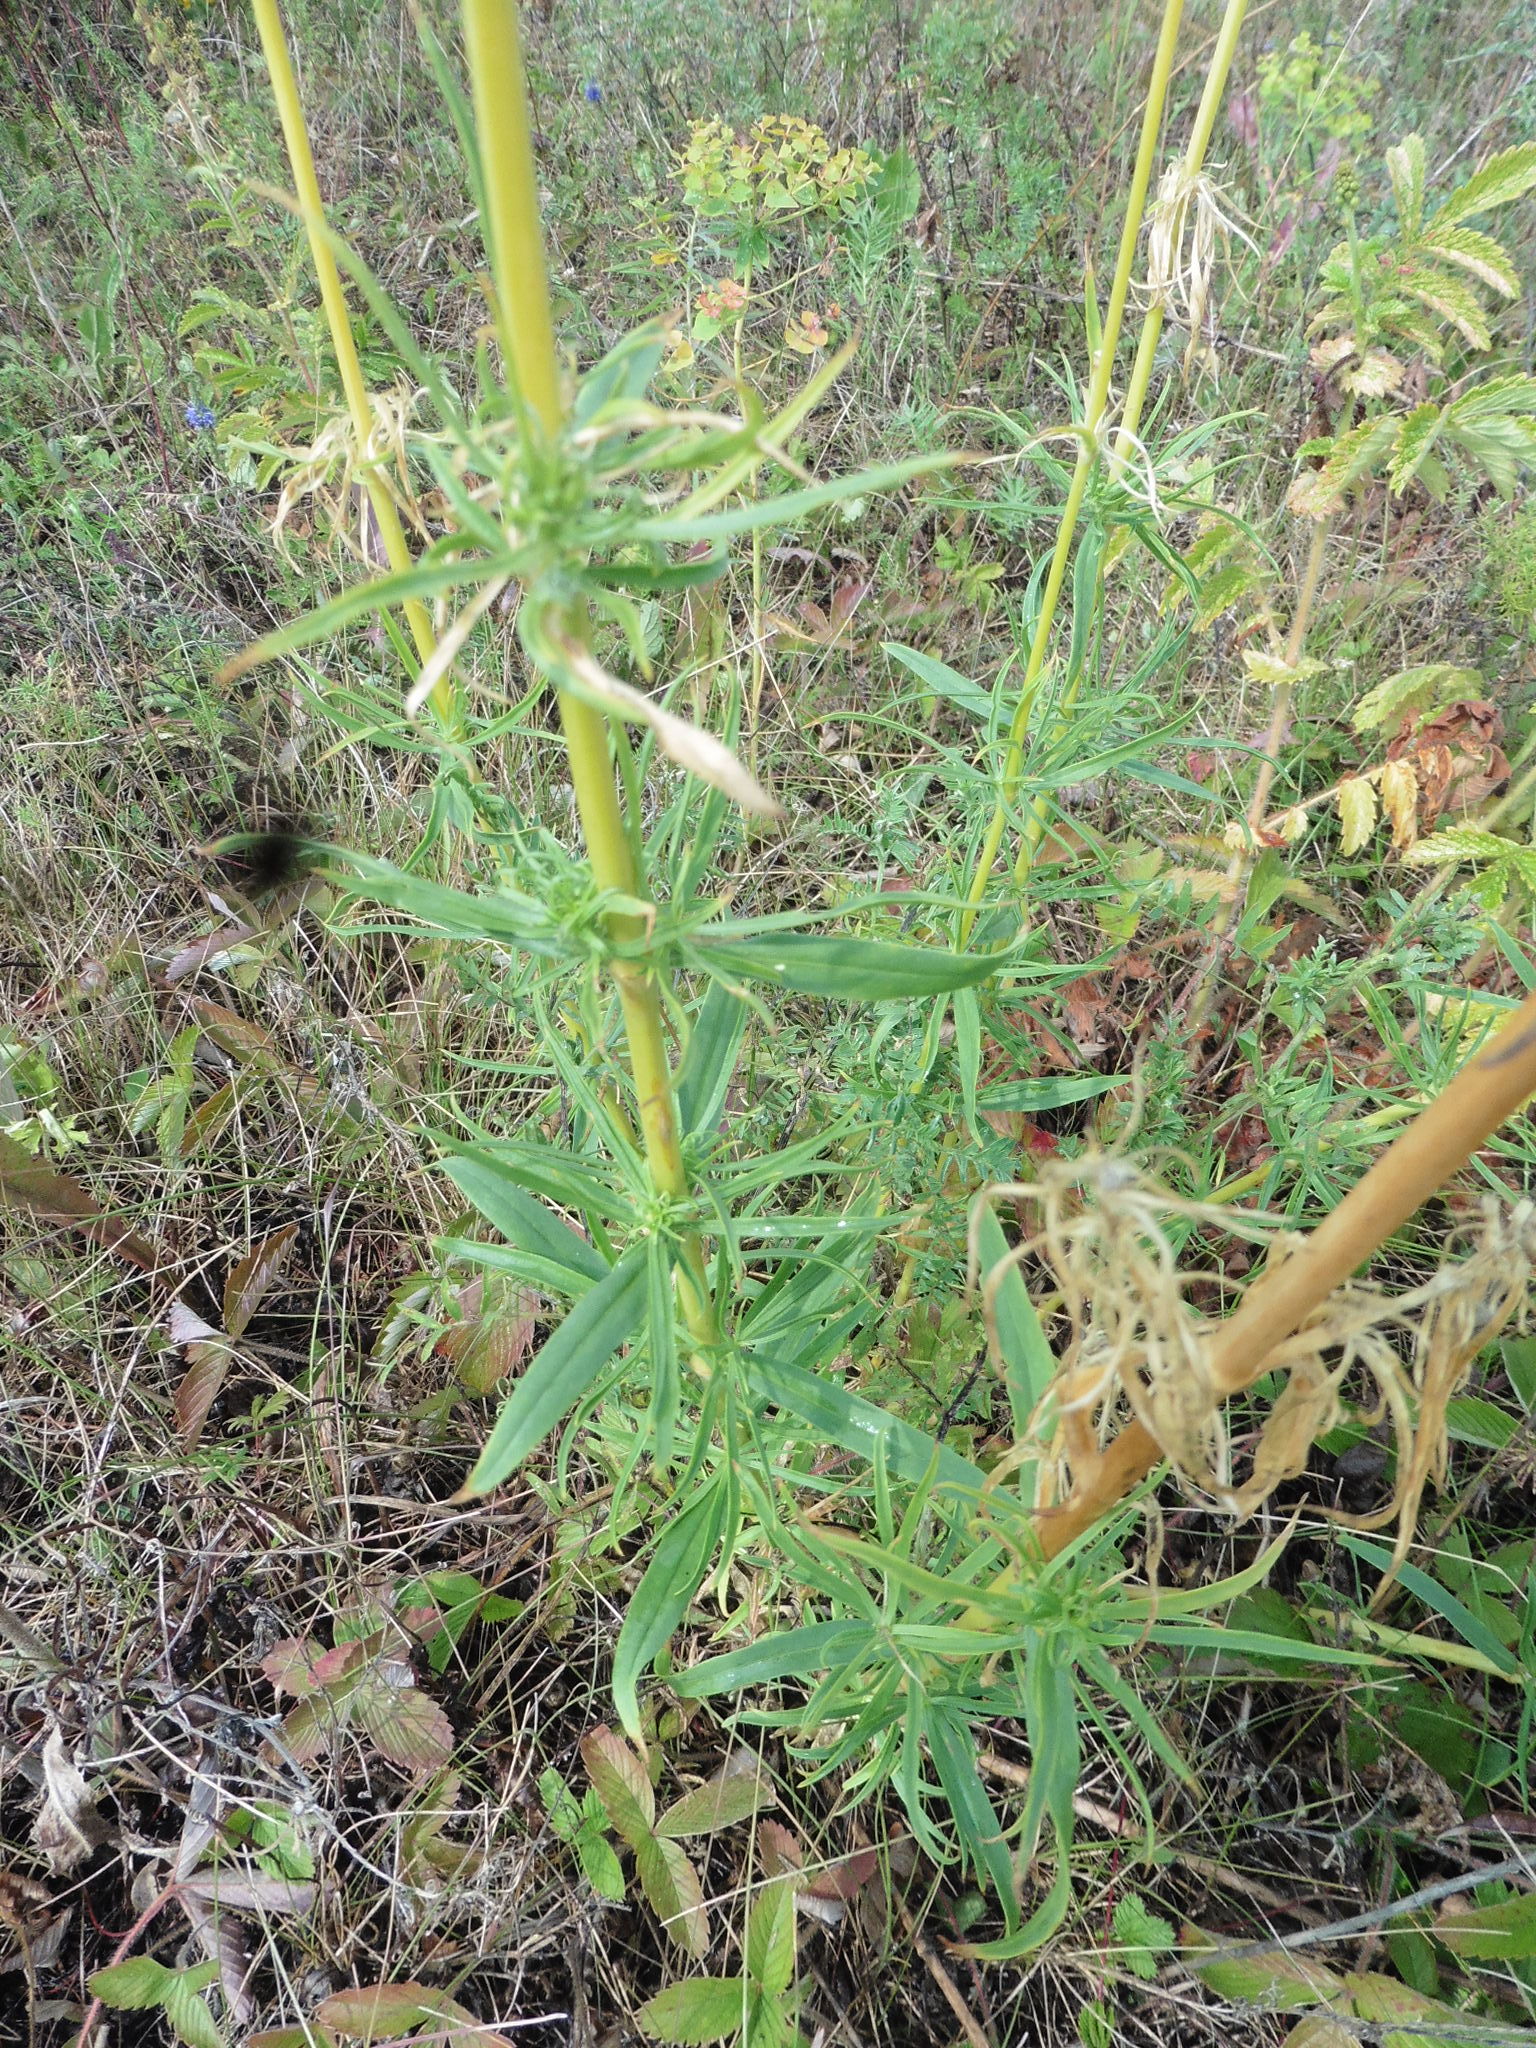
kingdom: Plantae
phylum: Tracheophyta
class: Magnoliopsida
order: Caryophyllales
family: Caryophyllaceae
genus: Silene
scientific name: Silene sibirica
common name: Siberian catchfly
